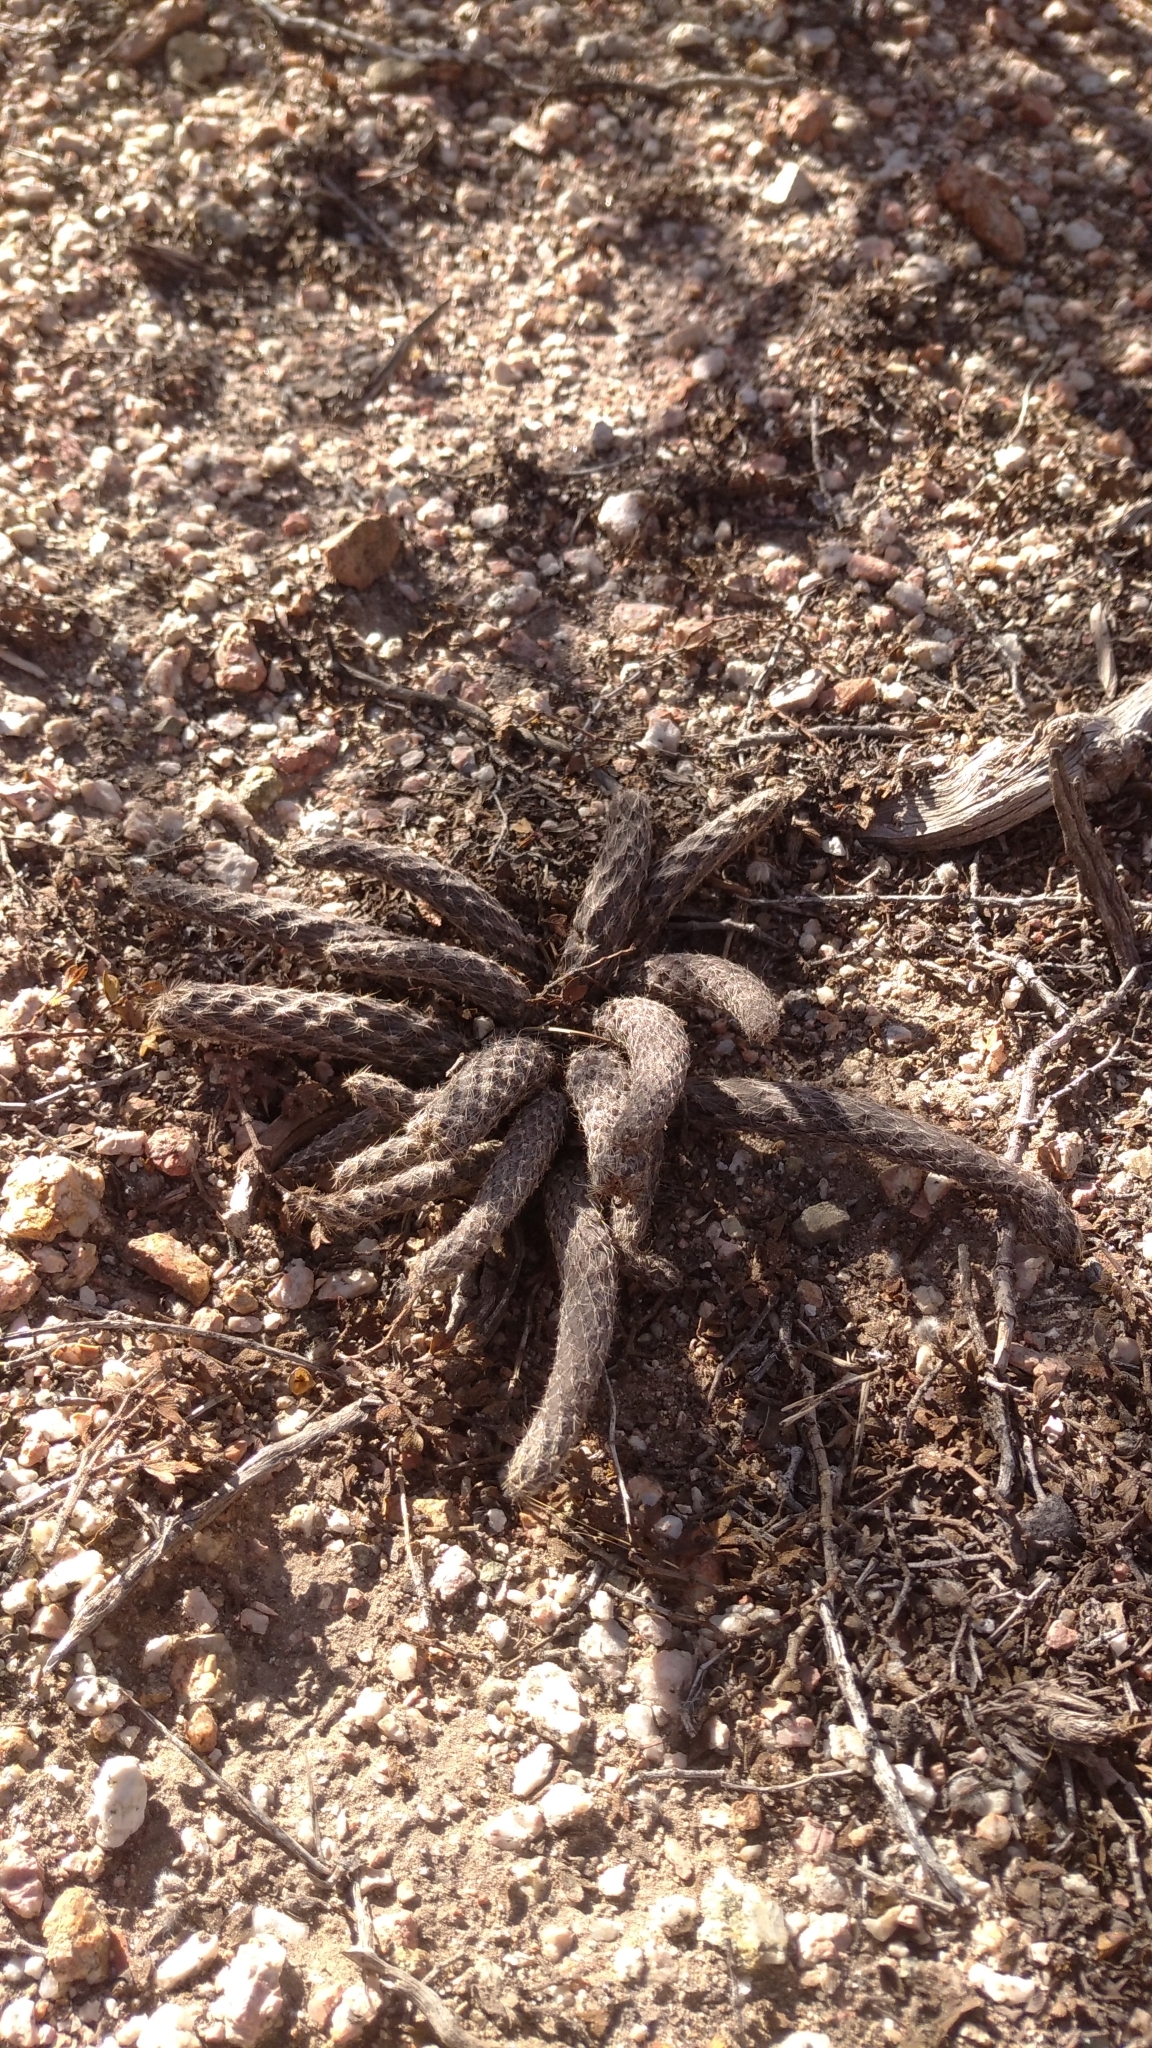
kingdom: Plantae
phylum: Tracheophyta
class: Magnoliopsida
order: Caryophyllales
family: Cactaceae
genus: Pterocactus
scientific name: Pterocactus tuberosus
